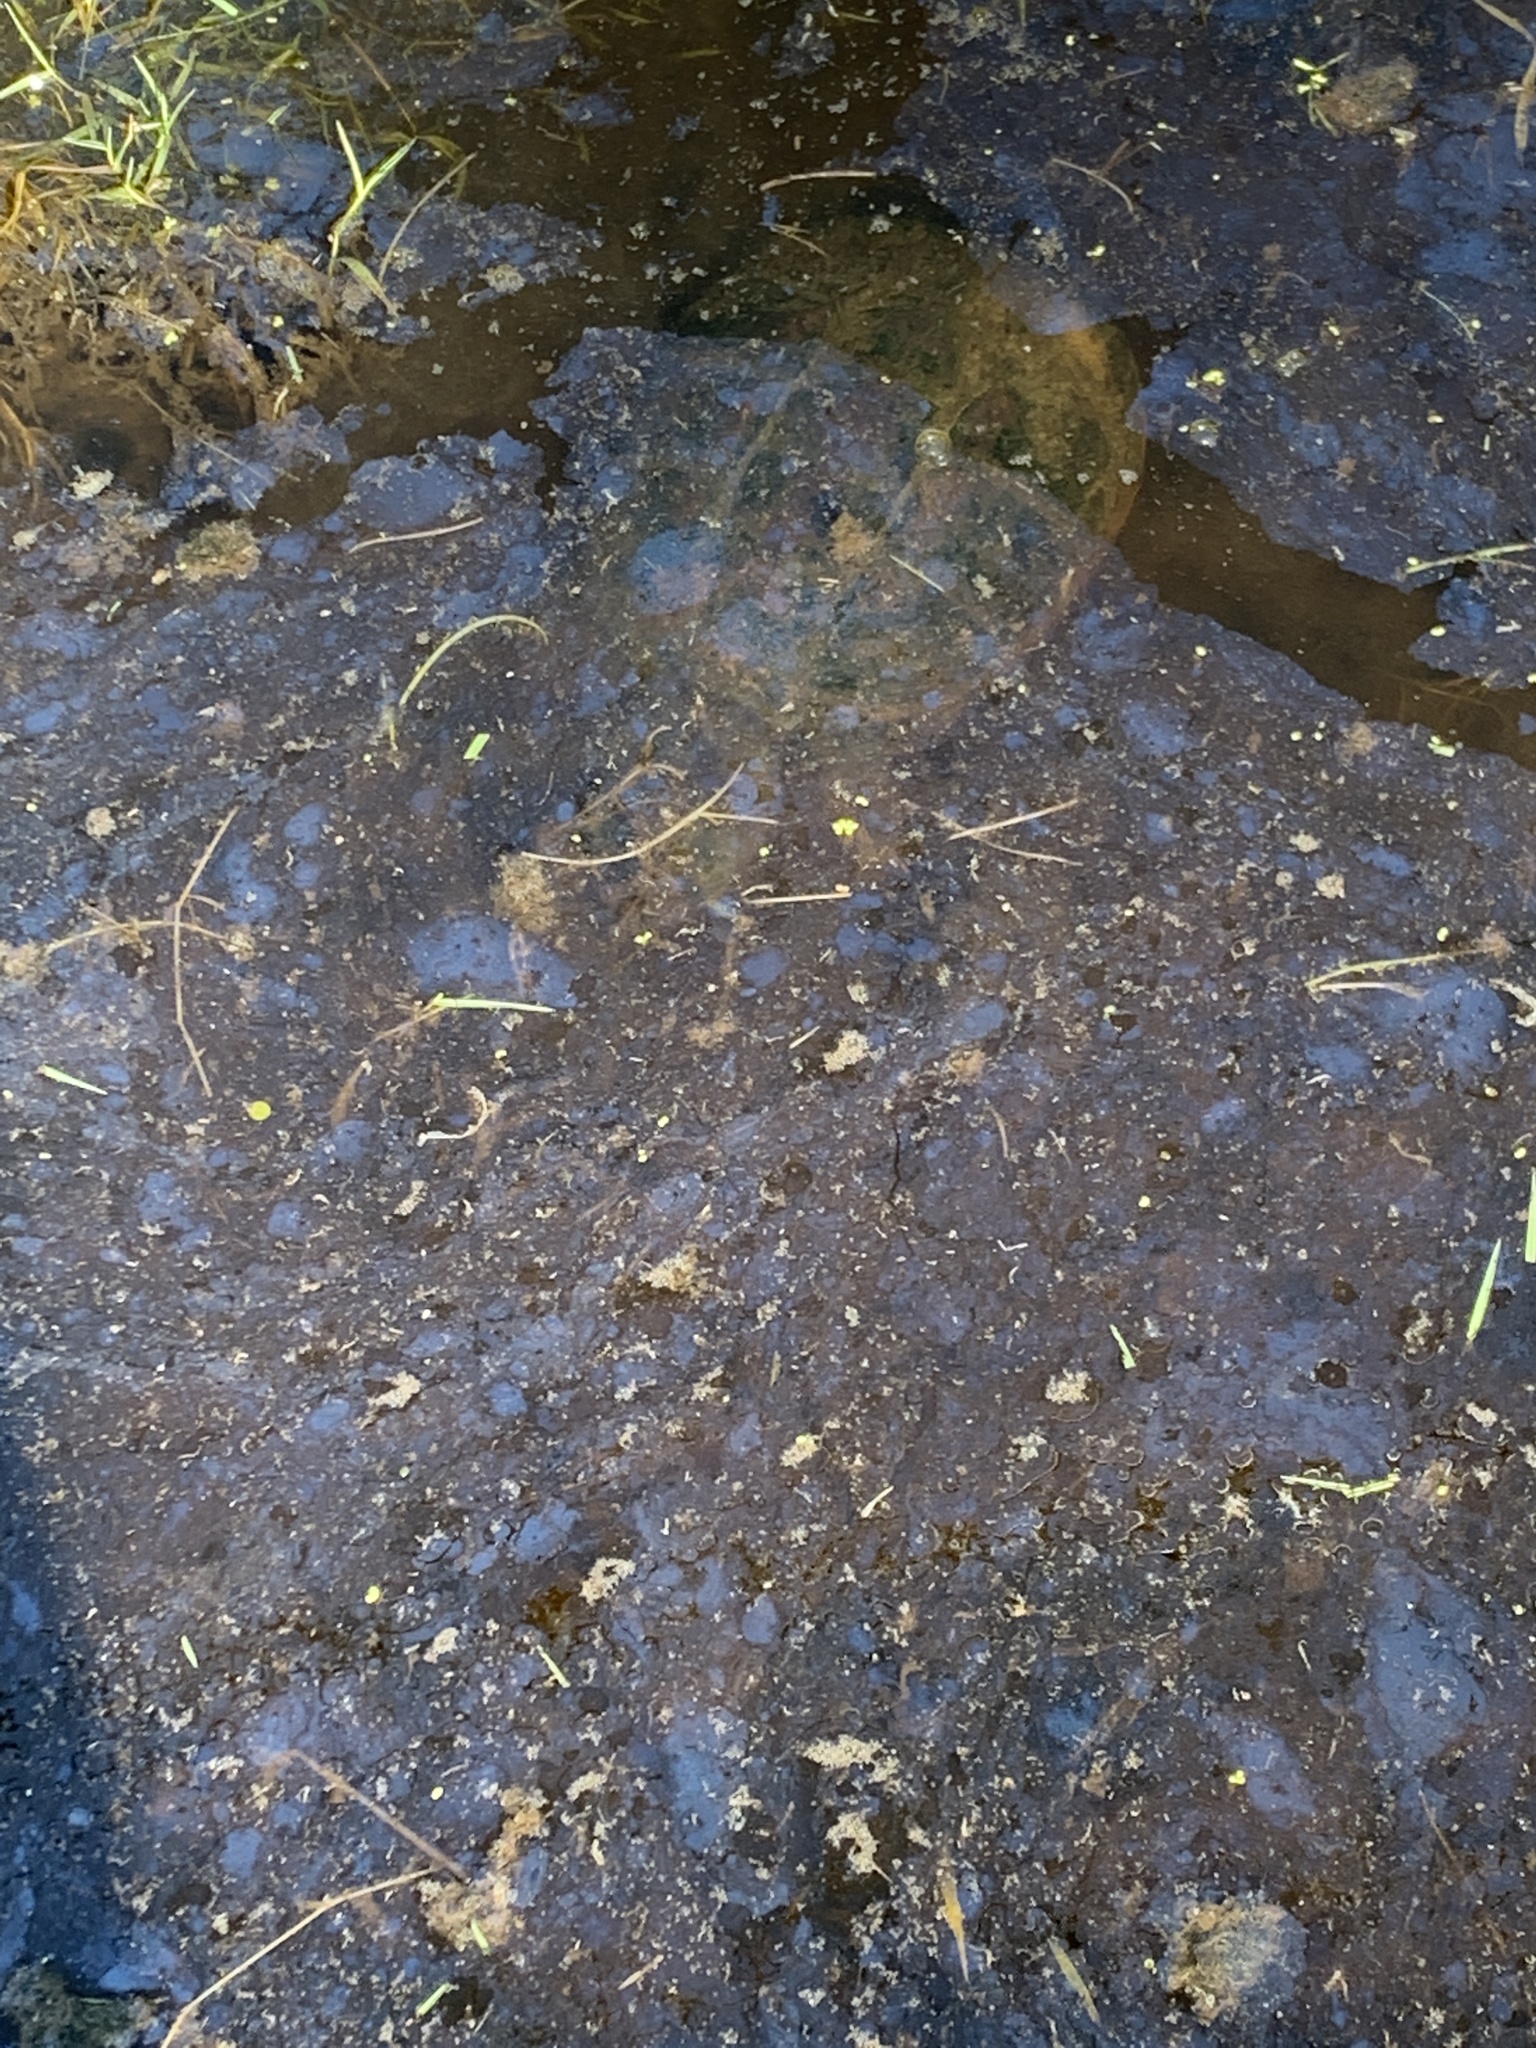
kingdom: Animalia
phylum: Chordata
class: Testudines
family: Chelydridae
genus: Chelydra
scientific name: Chelydra serpentina
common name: Common snapping turtle
